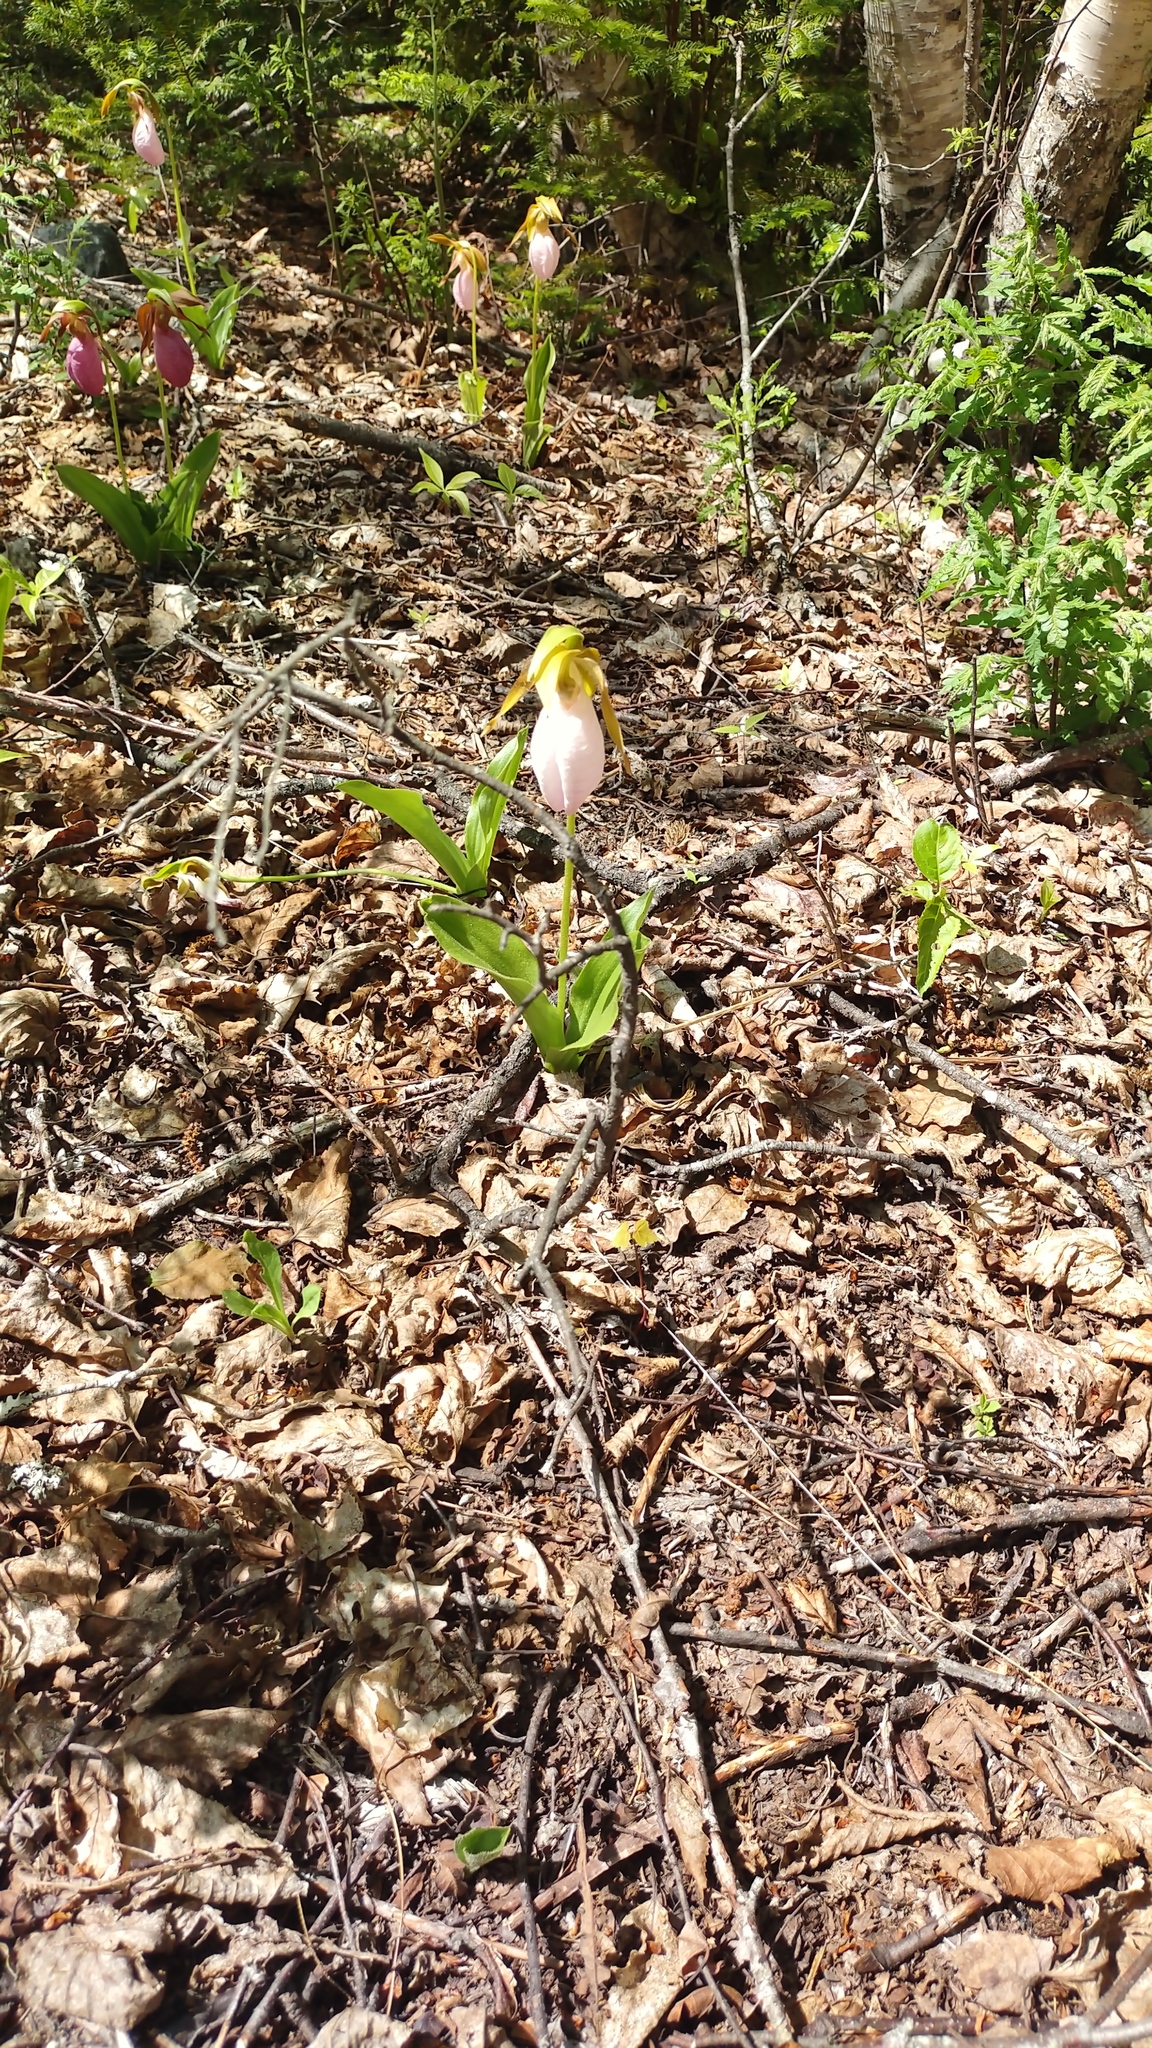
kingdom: Plantae
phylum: Tracheophyta
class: Liliopsida
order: Asparagales
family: Orchidaceae
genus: Cypripedium
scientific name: Cypripedium acaule
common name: Pink lady's-slipper
